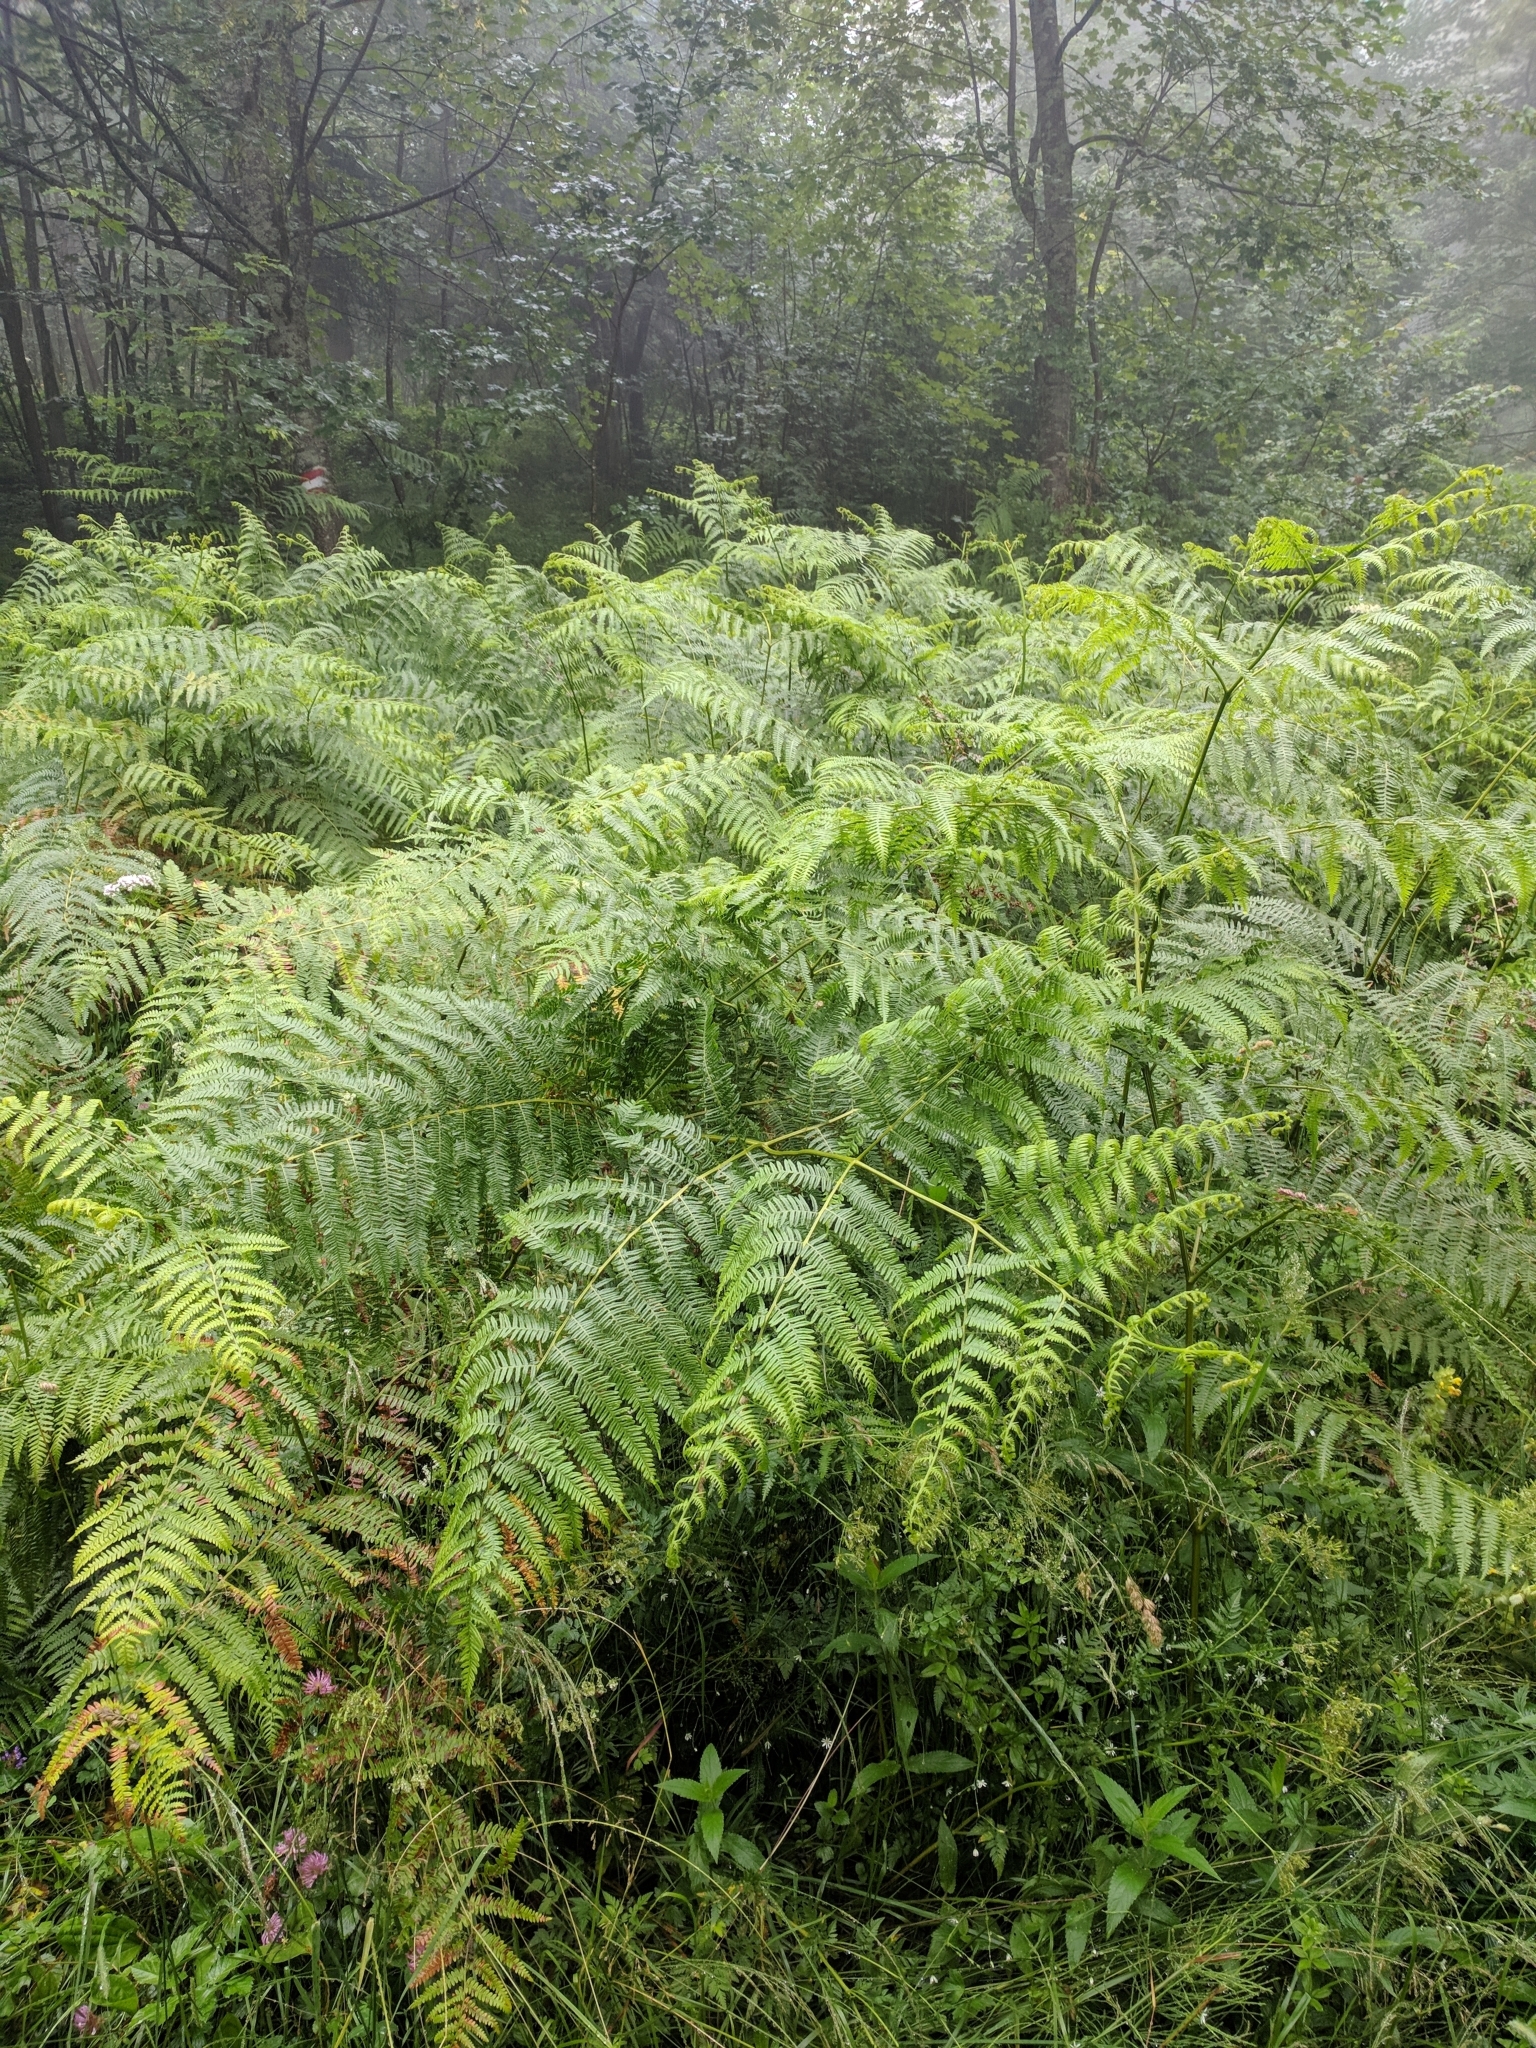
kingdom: Plantae
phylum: Tracheophyta
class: Polypodiopsida
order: Polypodiales
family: Dennstaedtiaceae
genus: Pteridium
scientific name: Pteridium aquilinum
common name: Bracken
